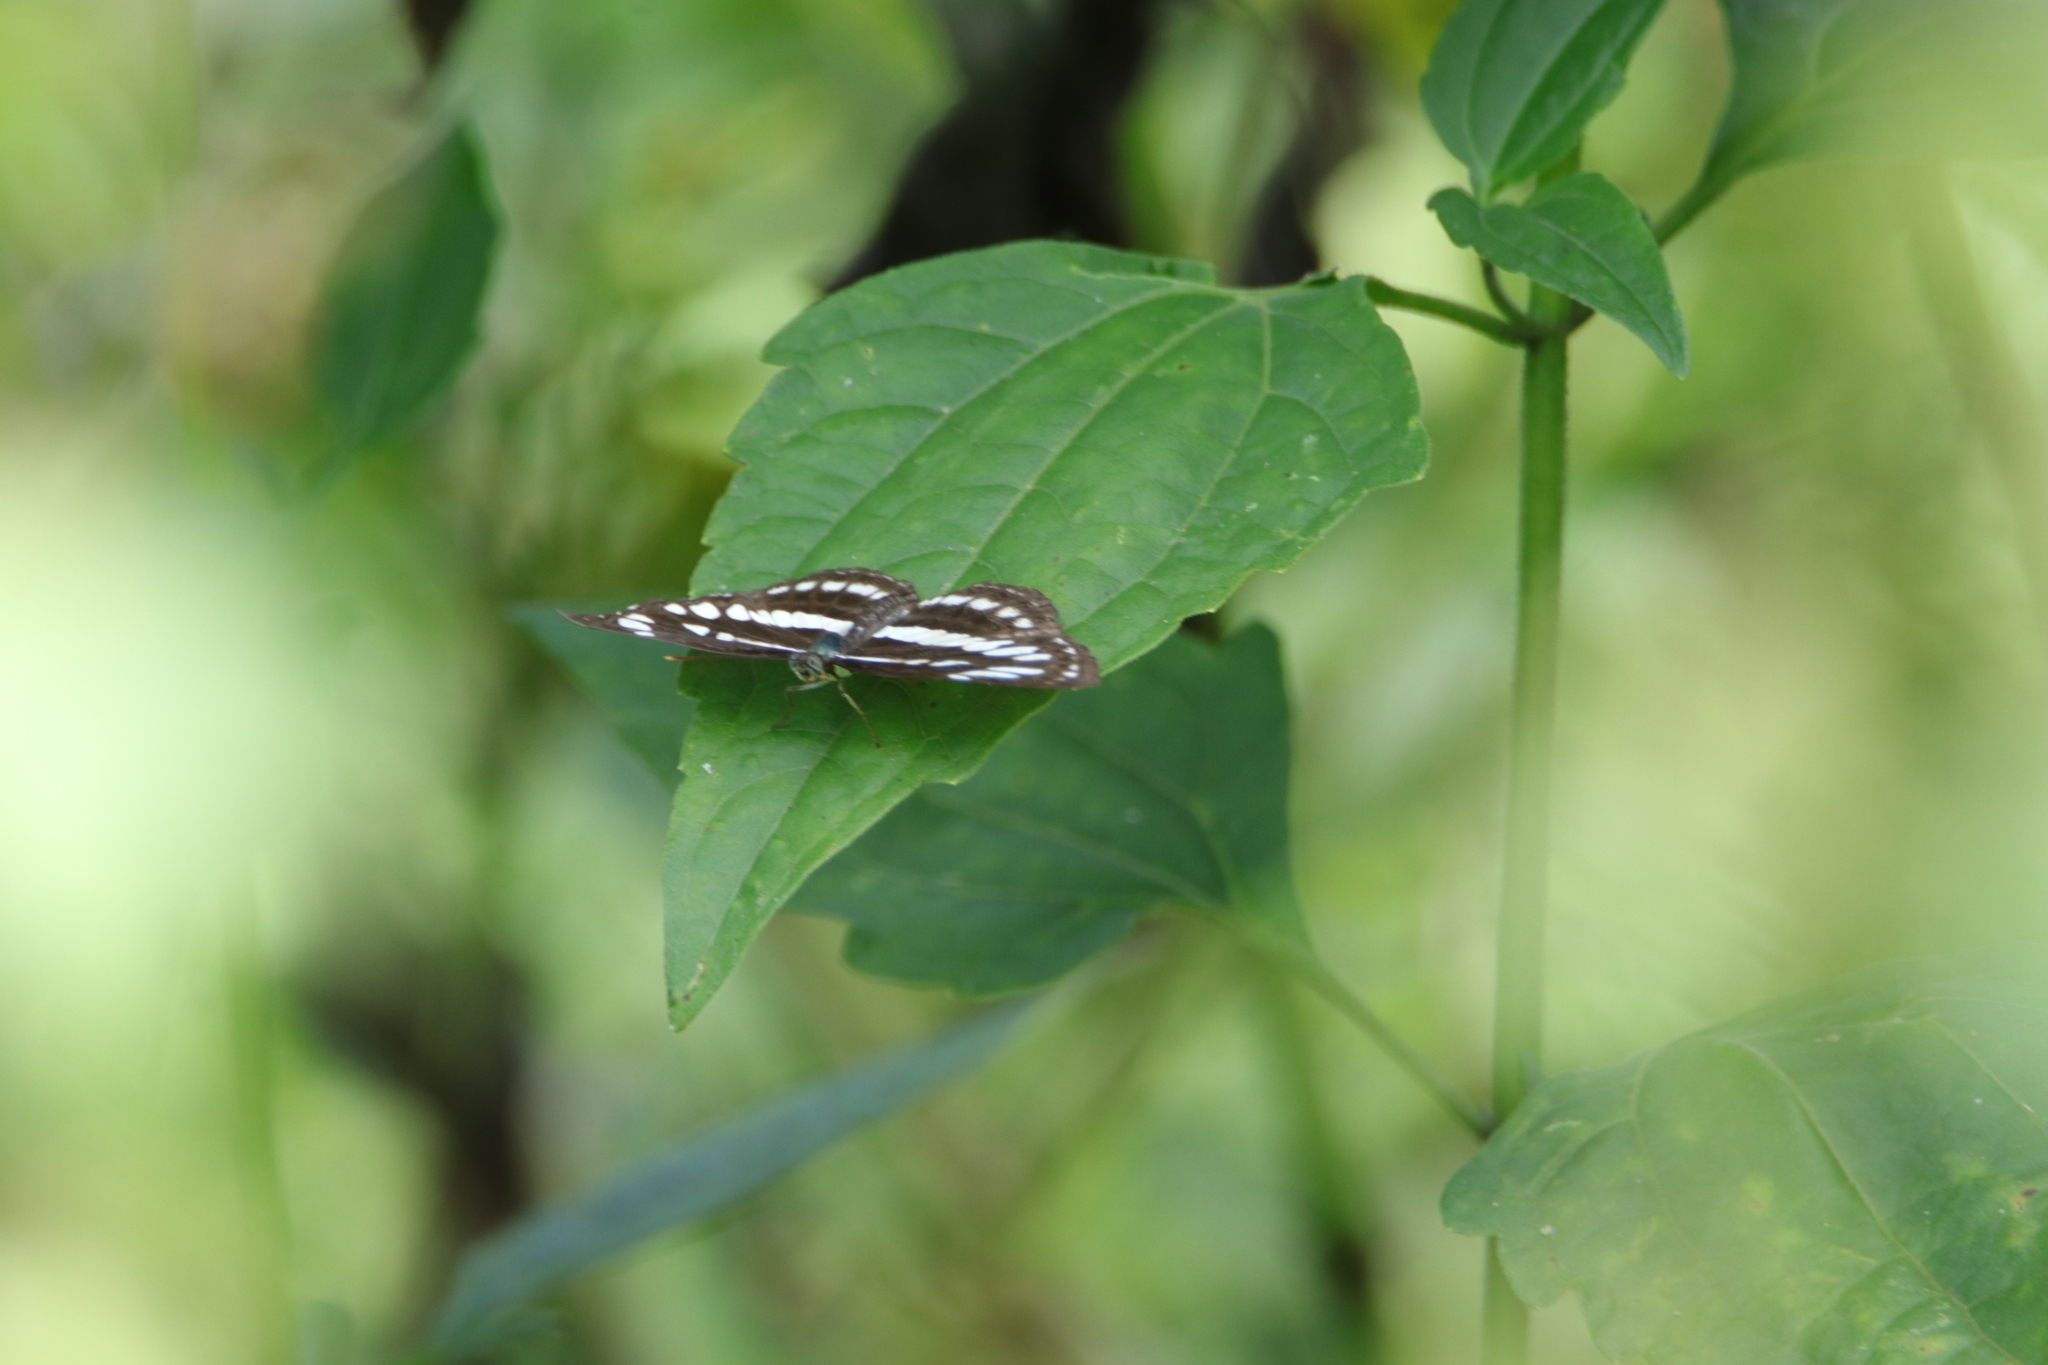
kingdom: Animalia
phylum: Arthropoda
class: Insecta
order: Lepidoptera
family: Nymphalidae
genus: Neptis
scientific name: Neptis hylas
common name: Common sailer
